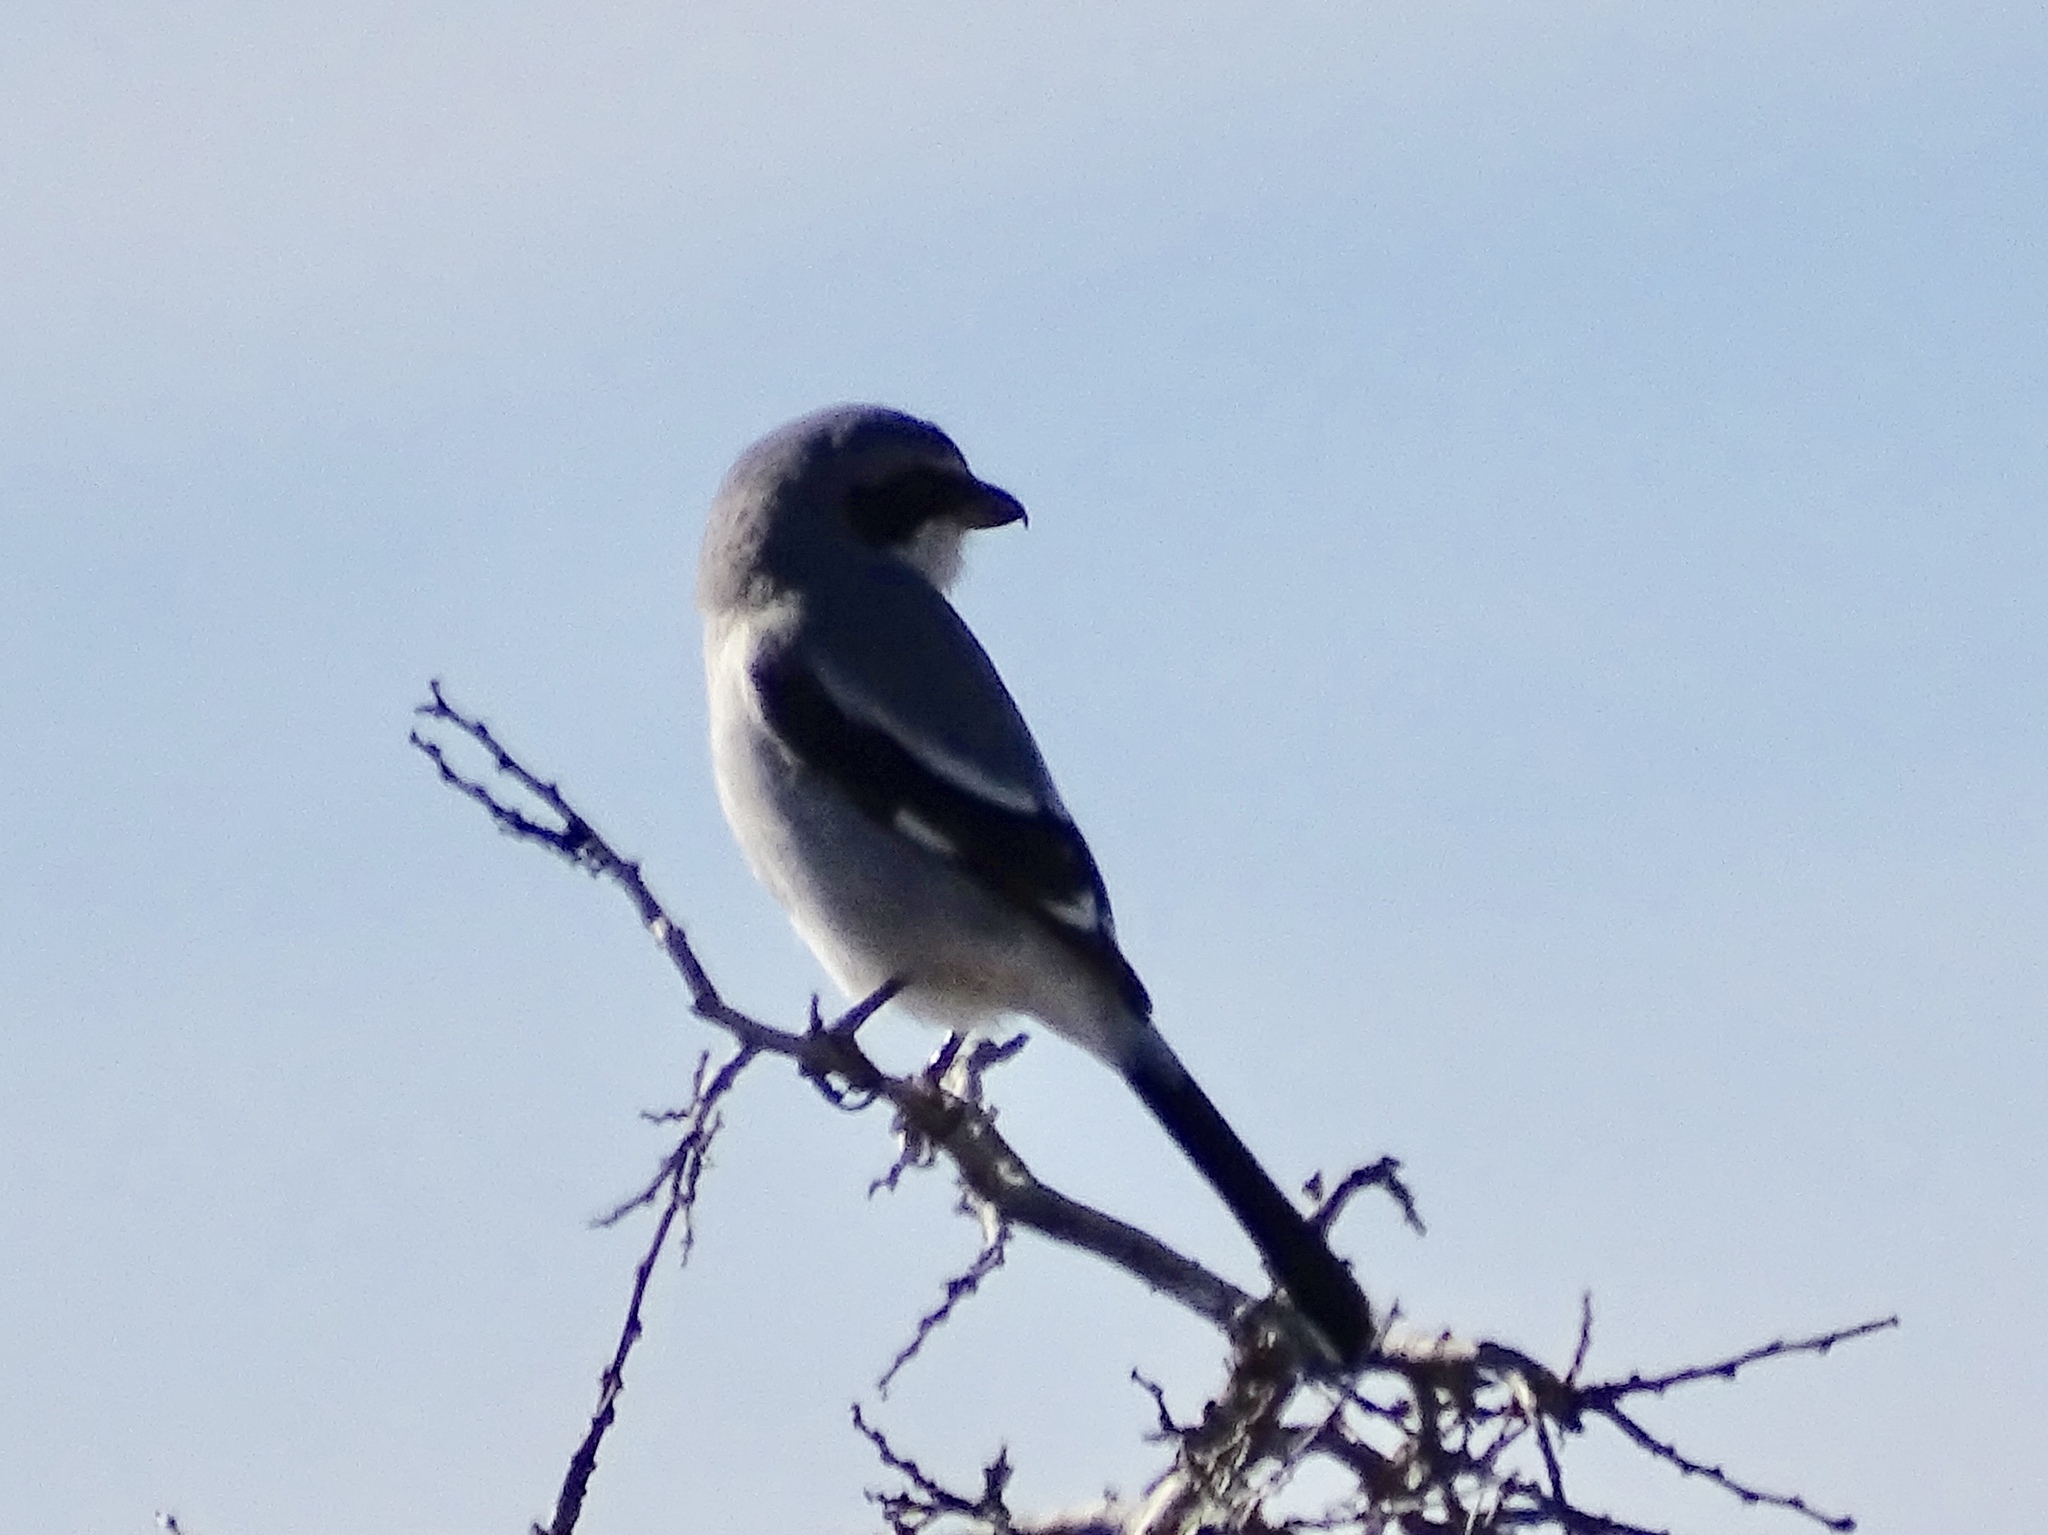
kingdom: Animalia
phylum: Chordata
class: Aves
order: Passeriformes
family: Laniidae
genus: Lanius
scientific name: Lanius ludovicianus
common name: Loggerhead shrike
